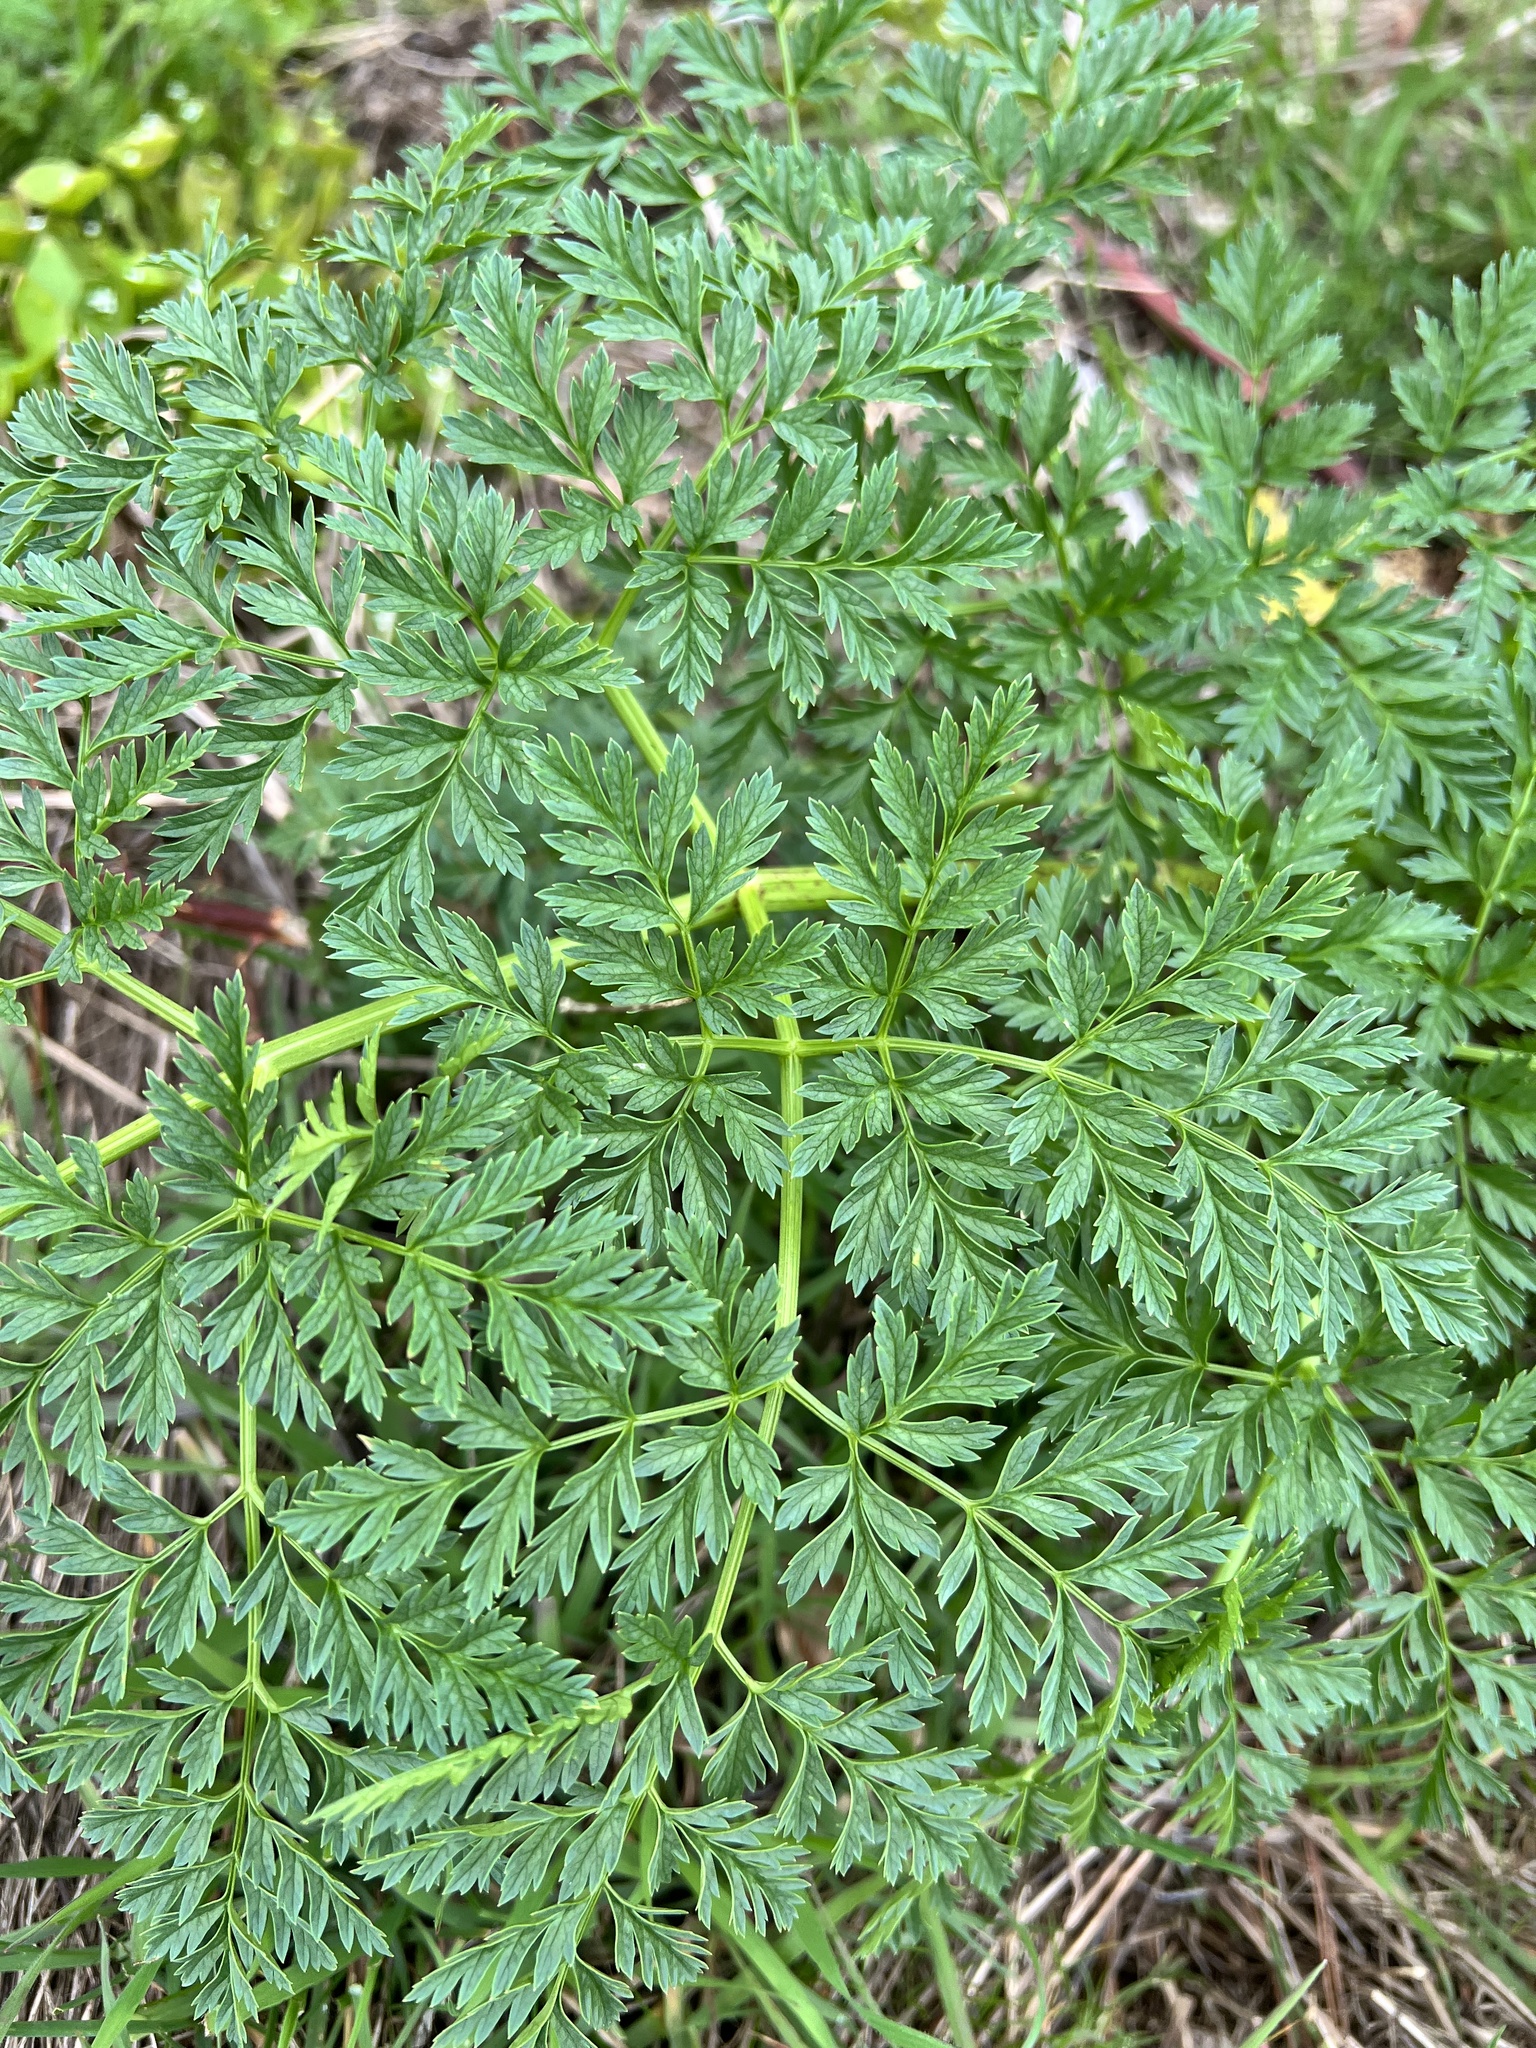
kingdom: Plantae
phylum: Tracheophyta
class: Magnoliopsida
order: Apiales
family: Apiaceae
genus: Conium
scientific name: Conium maculatum
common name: Hemlock
